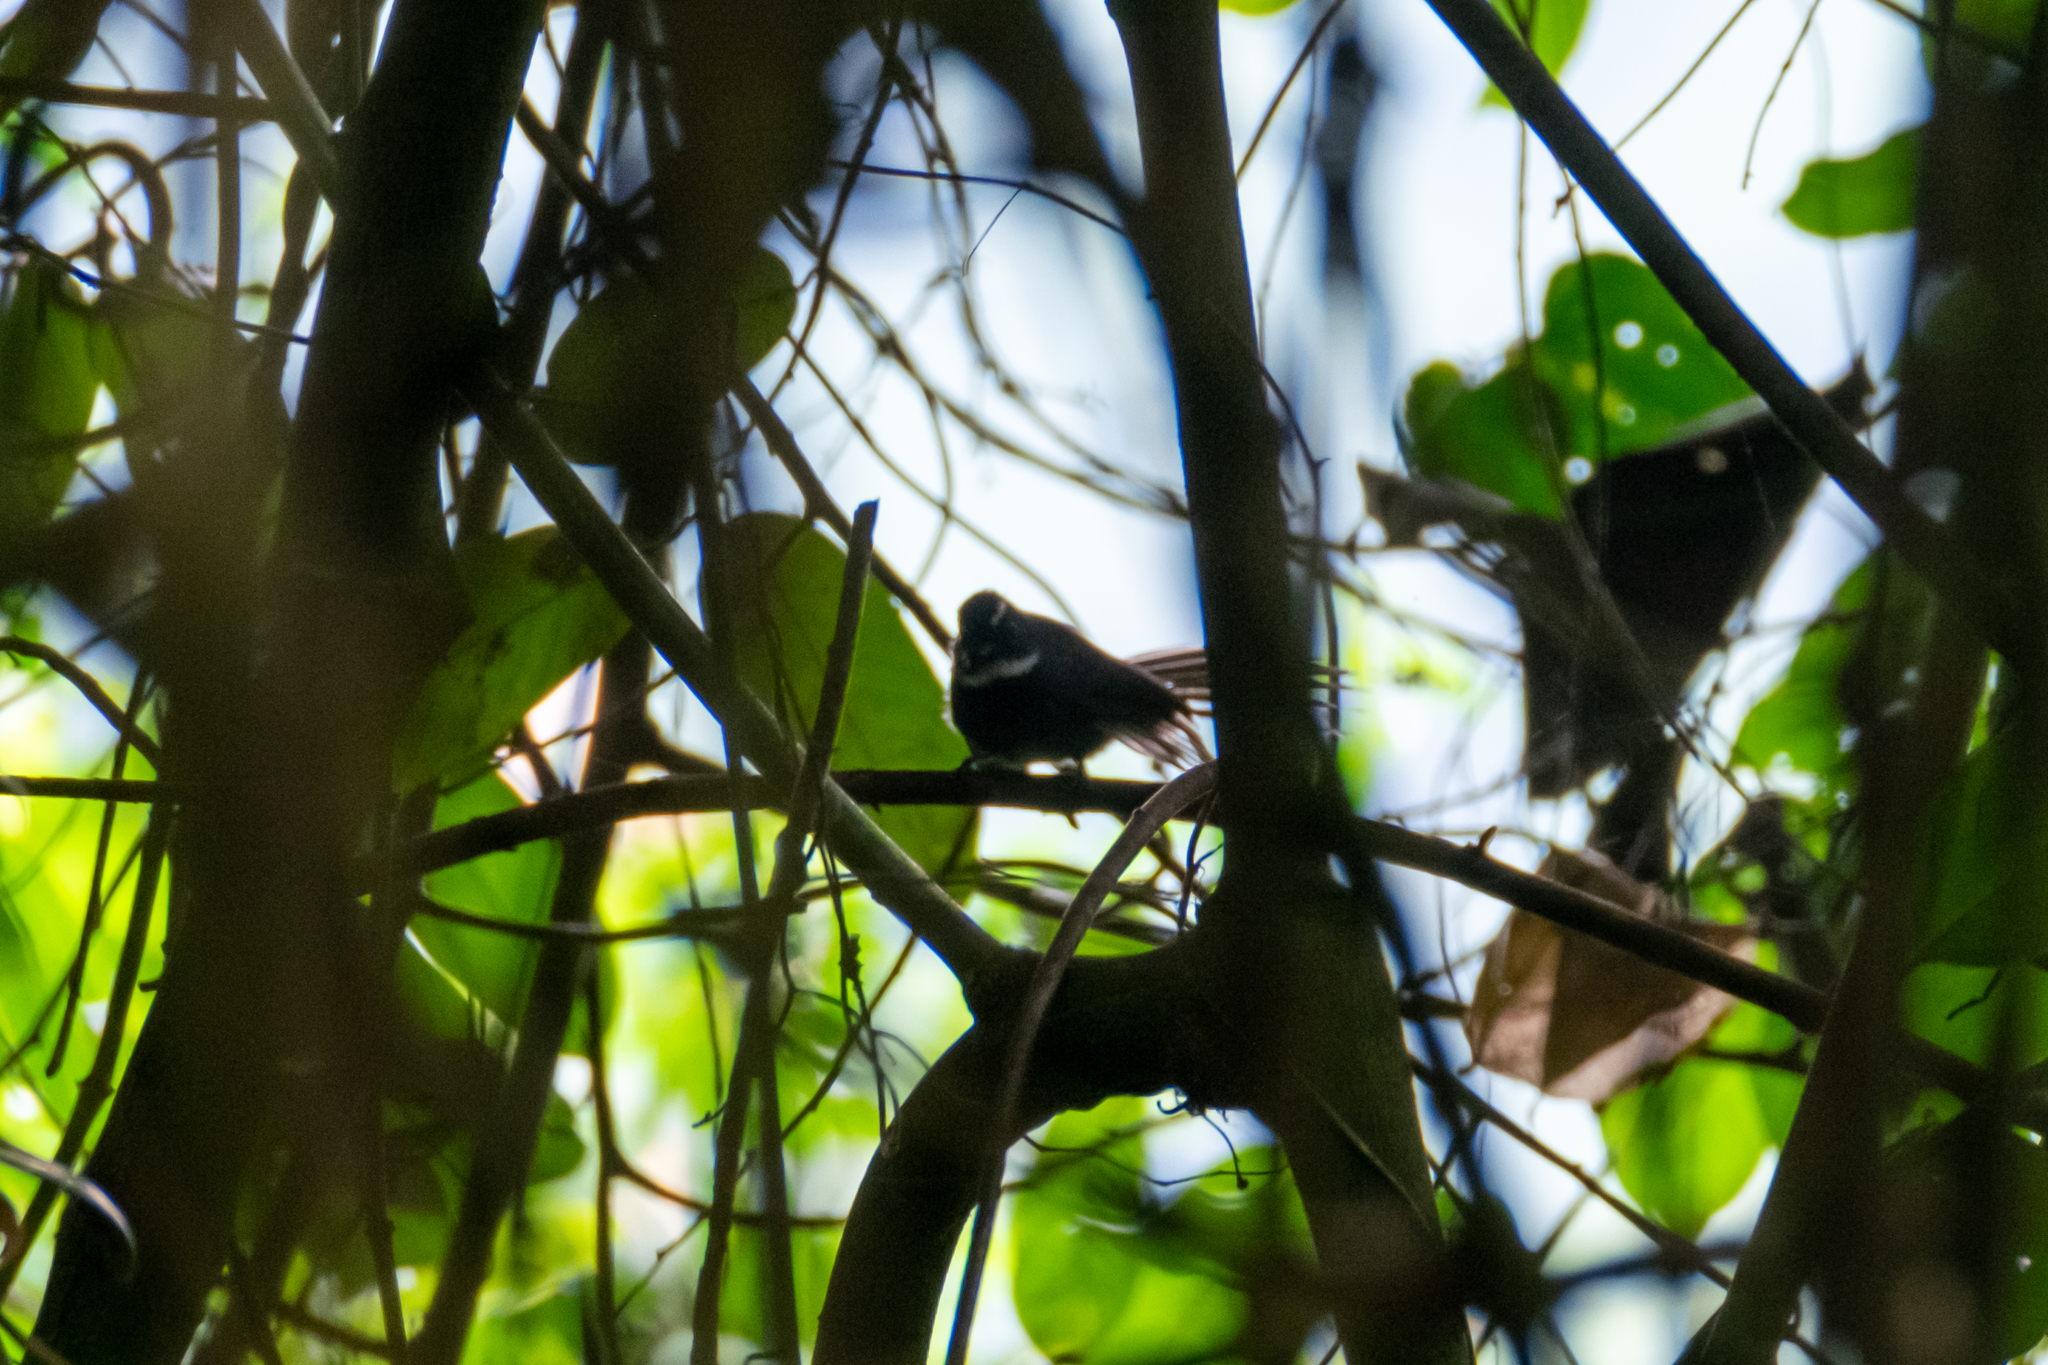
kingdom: Animalia
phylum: Chordata
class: Aves
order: Passeriformes
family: Rhipiduridae
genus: Rhipidura
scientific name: Rhipidura albicollis
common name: White-throated fantail
